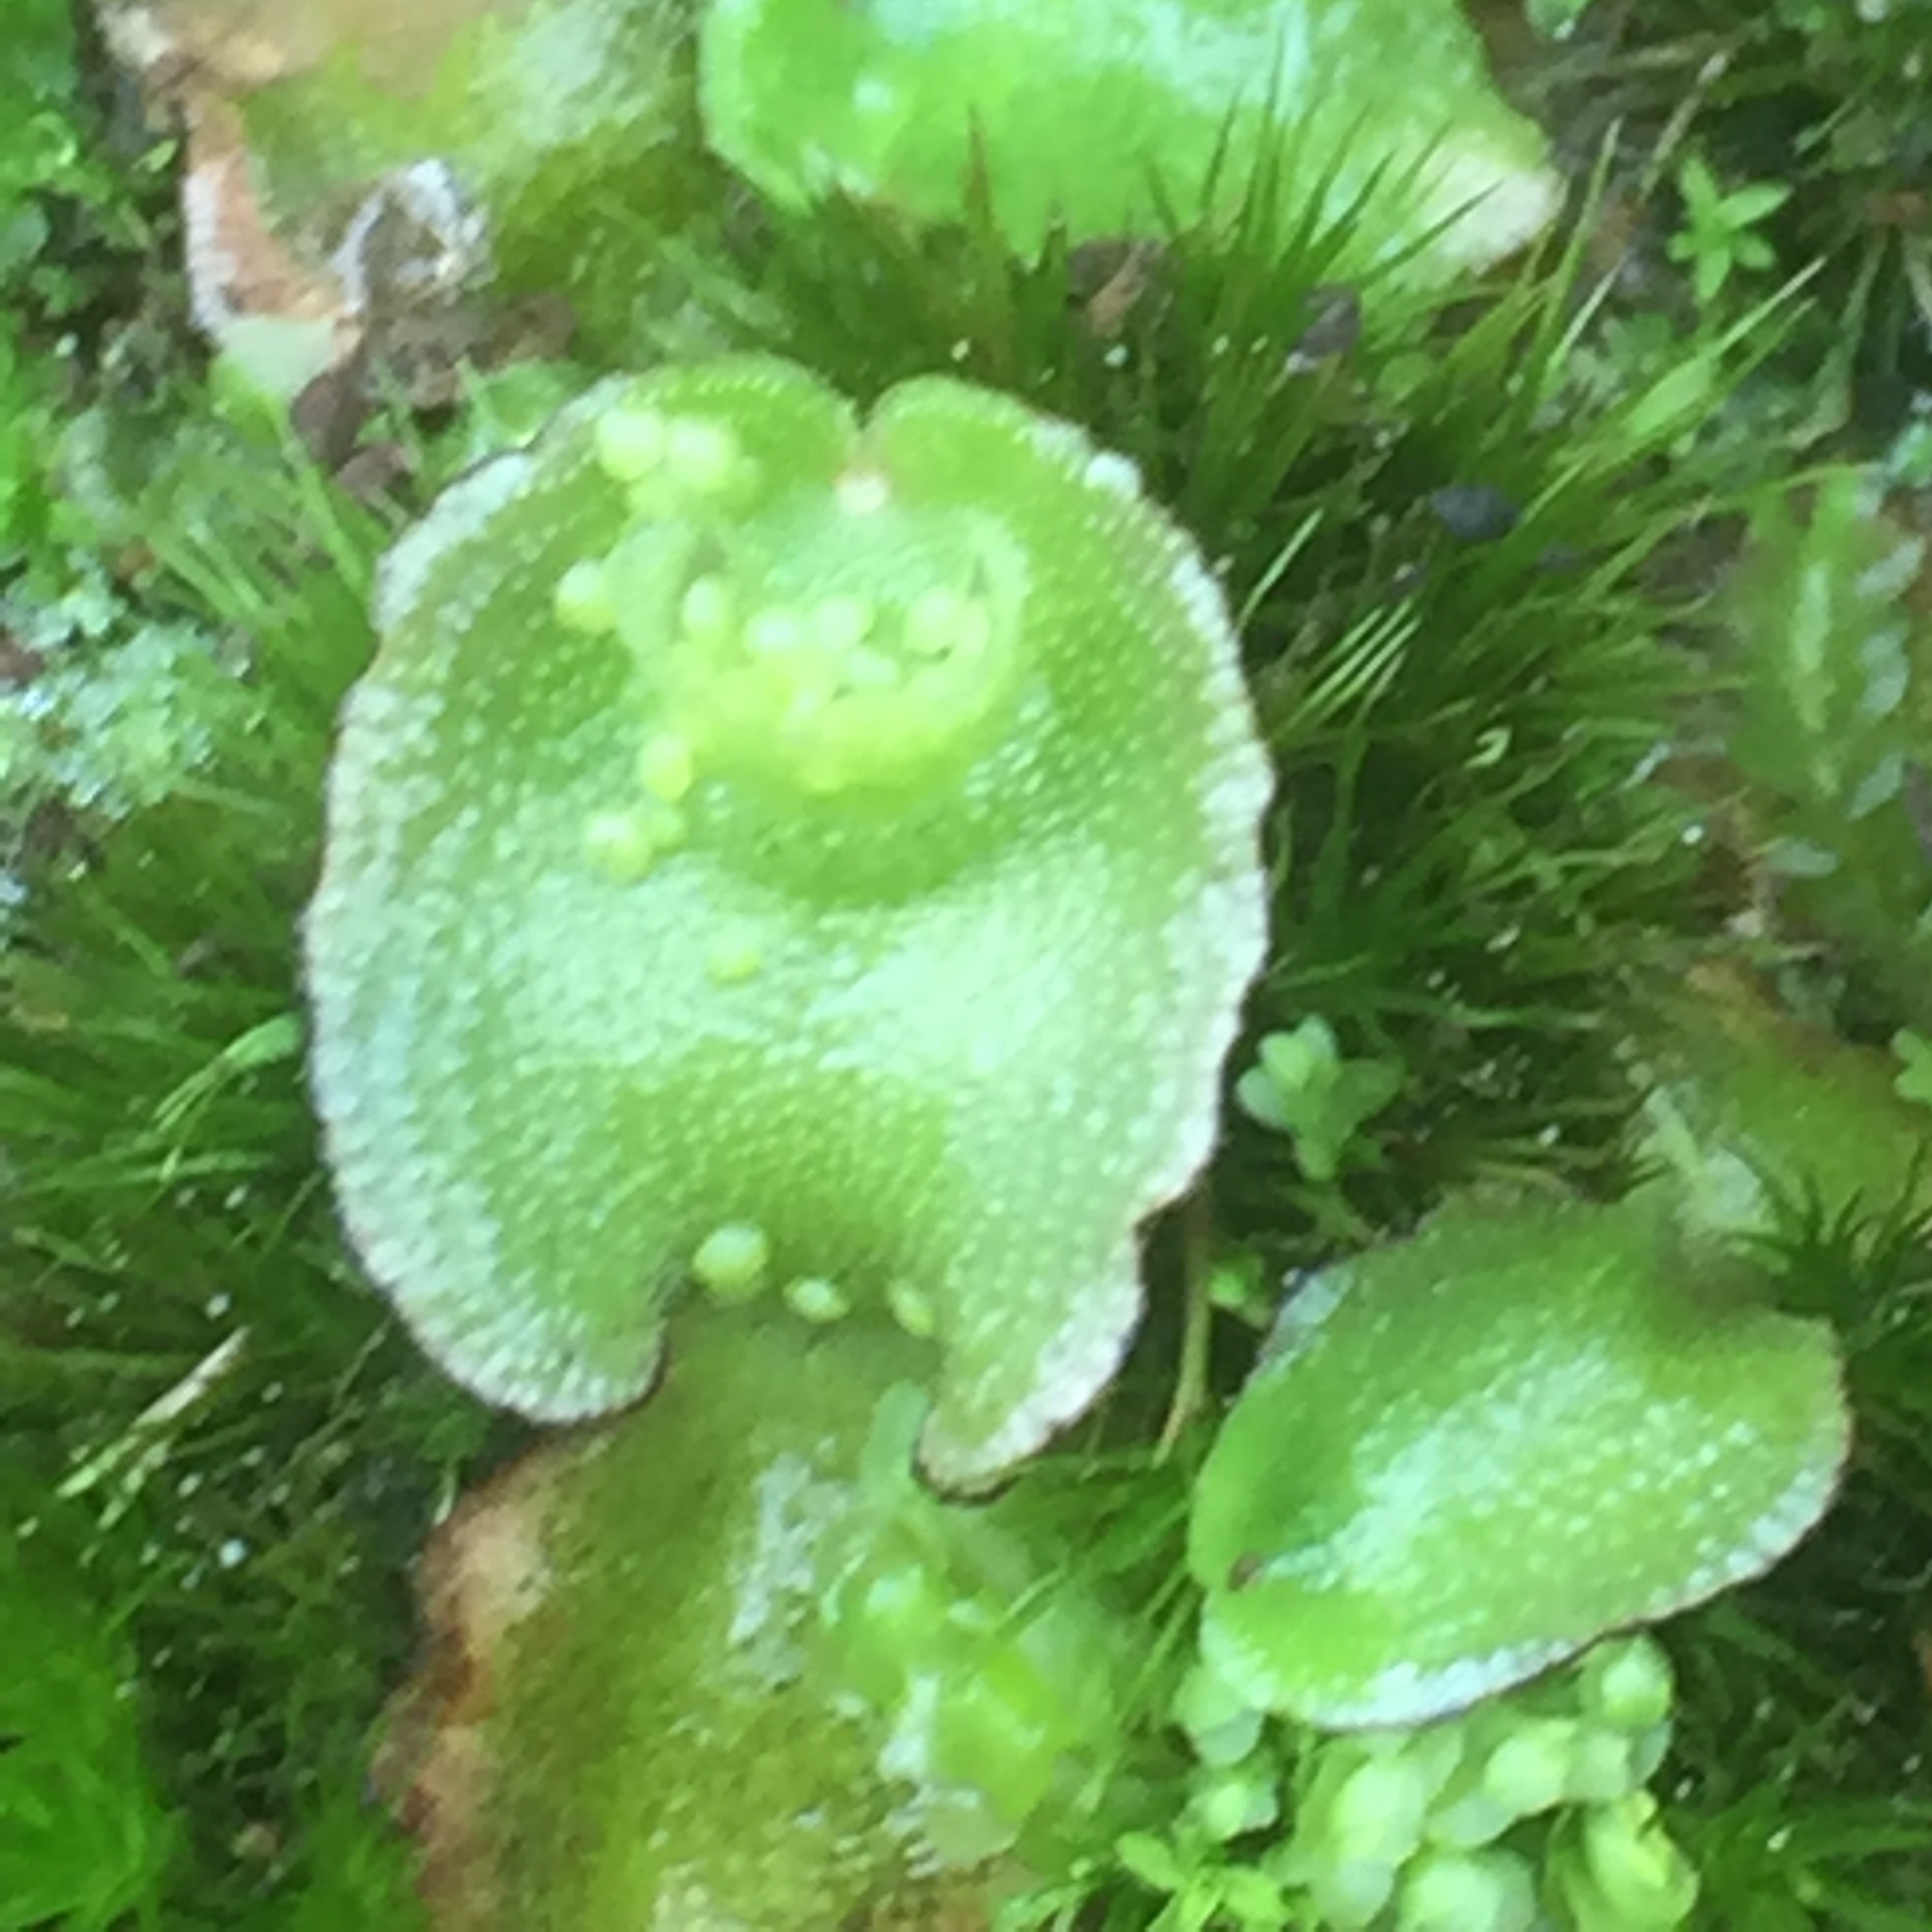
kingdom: Plantae
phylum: Marchantiophyta
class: Marchantiopsida
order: Lunulariales
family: Lunulariaceae
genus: Lunularia
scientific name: Lunularia cruciata
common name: Crescent-cup liverwort
